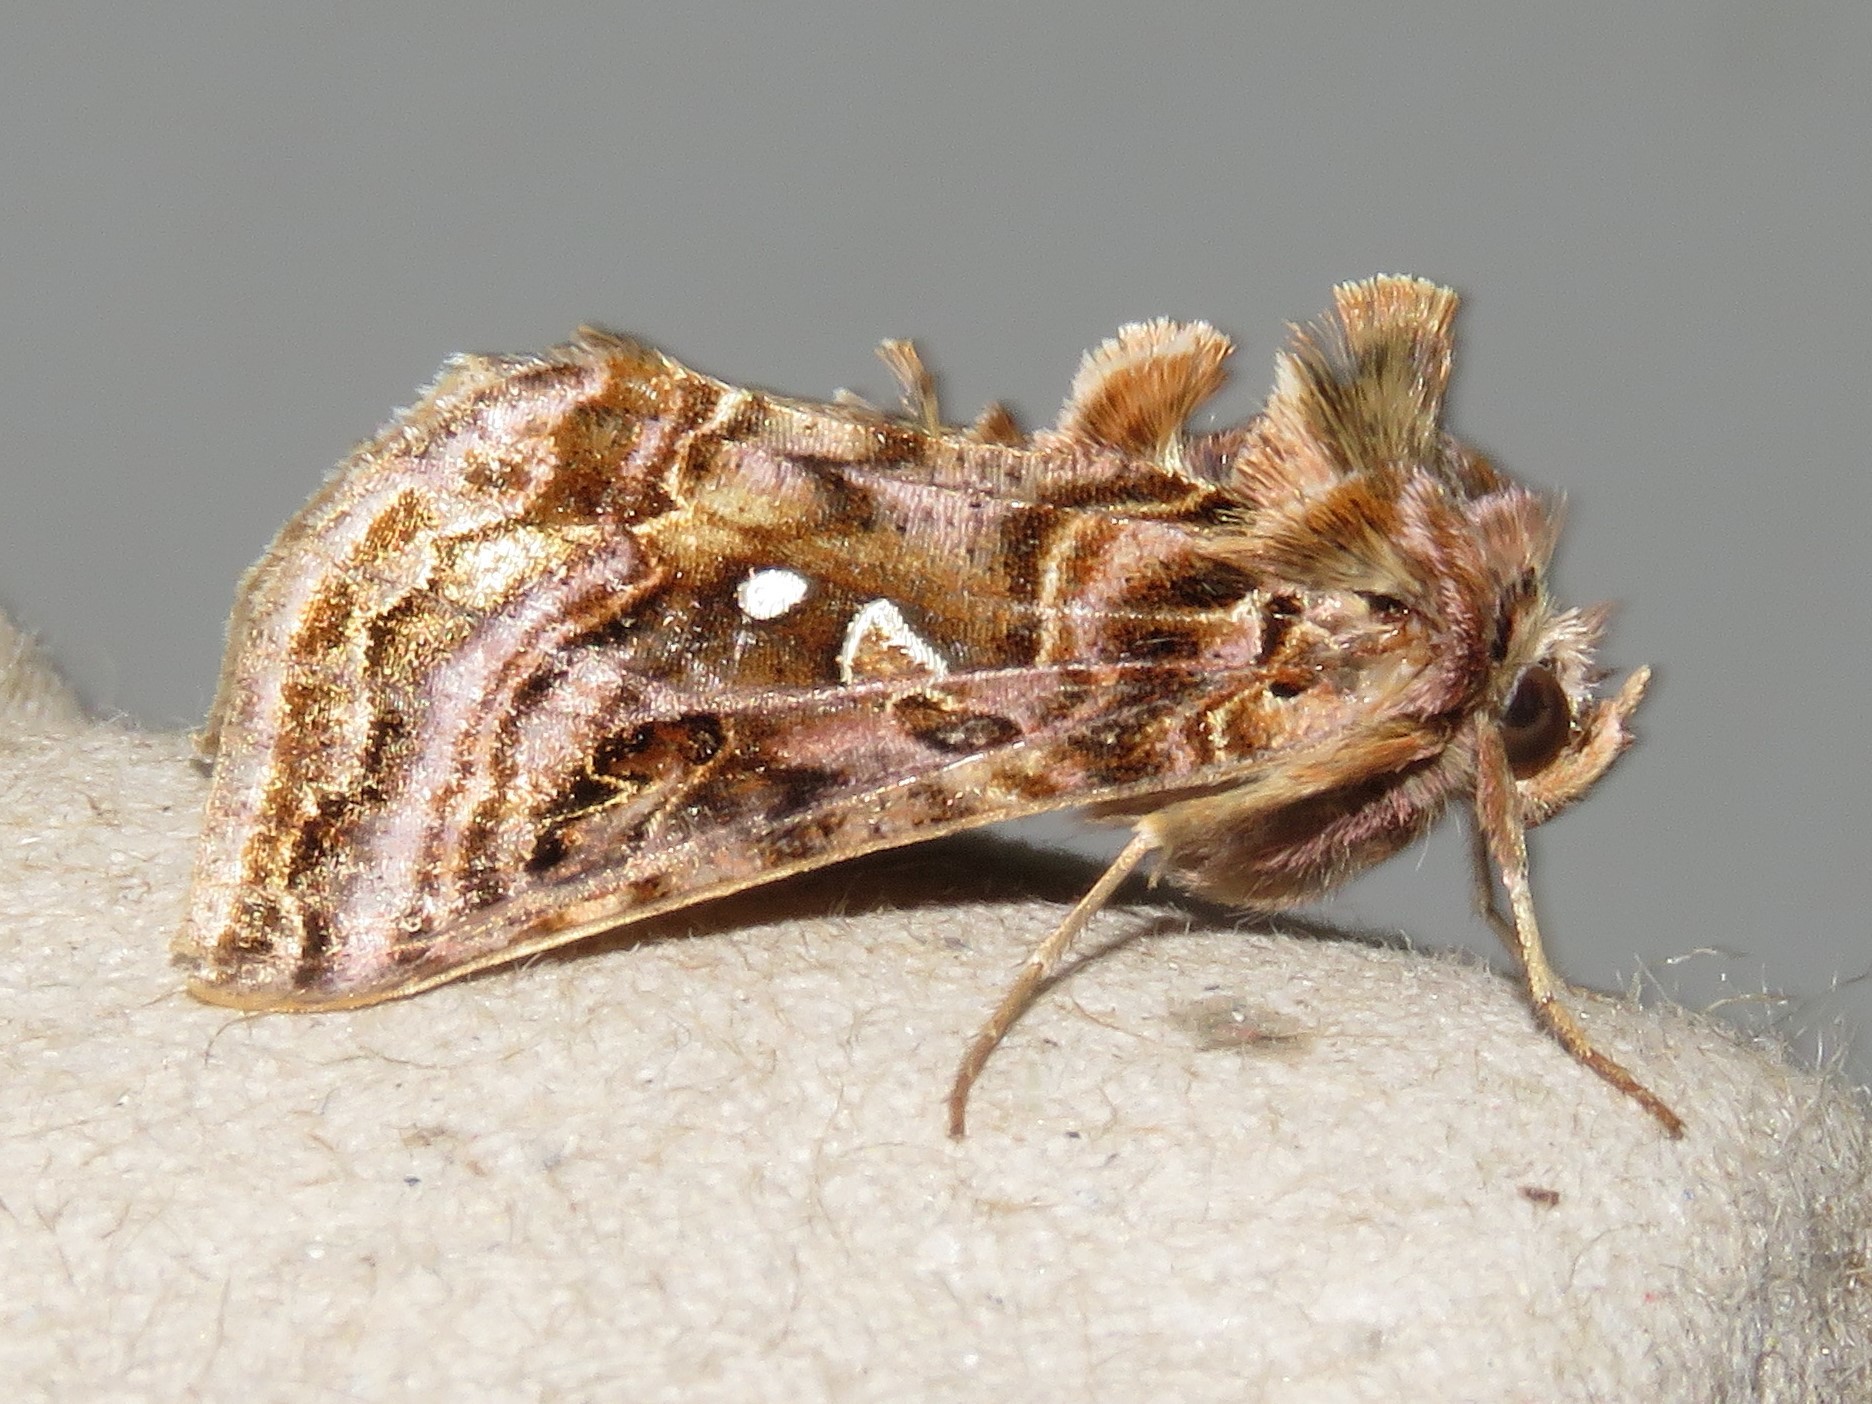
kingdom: Animalia
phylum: Arthropoda
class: Insecta
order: Lepidoptera
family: Noctuidae
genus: Autographa
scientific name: Autographa mappa
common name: Wavy chestnut y moth
